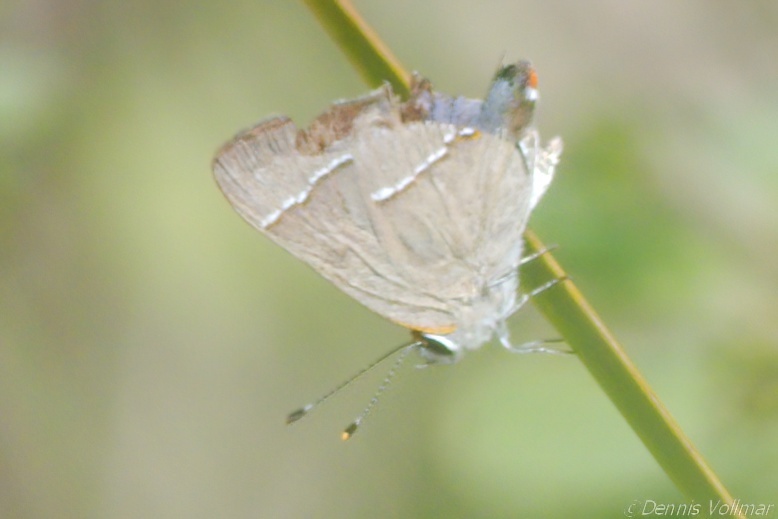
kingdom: Animalia
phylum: Arthropoda
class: Insecta
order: Lepidoptera
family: Lycaenidae
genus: Thecla
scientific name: Thecla martialis
